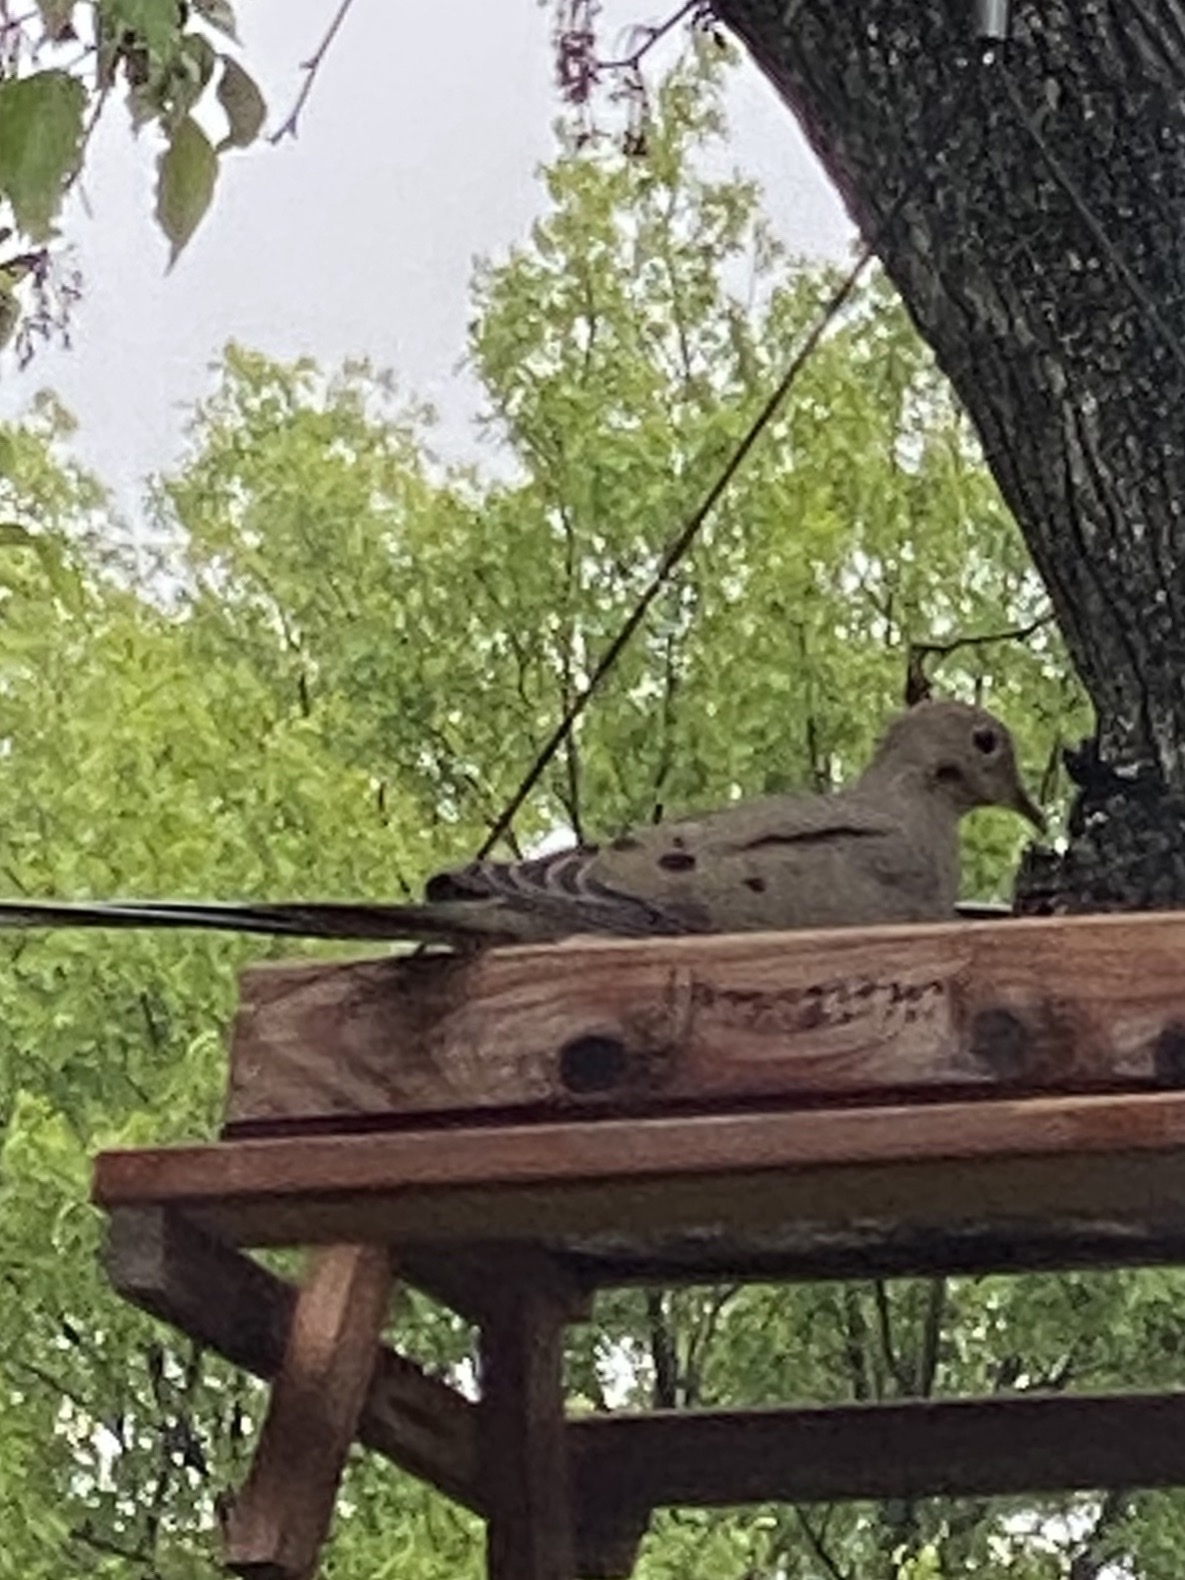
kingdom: Animalia
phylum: Chordata
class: Aves
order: Columbiformes
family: Columbidae
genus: Zenaida
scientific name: Zenaida macroura
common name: Mourning dove
